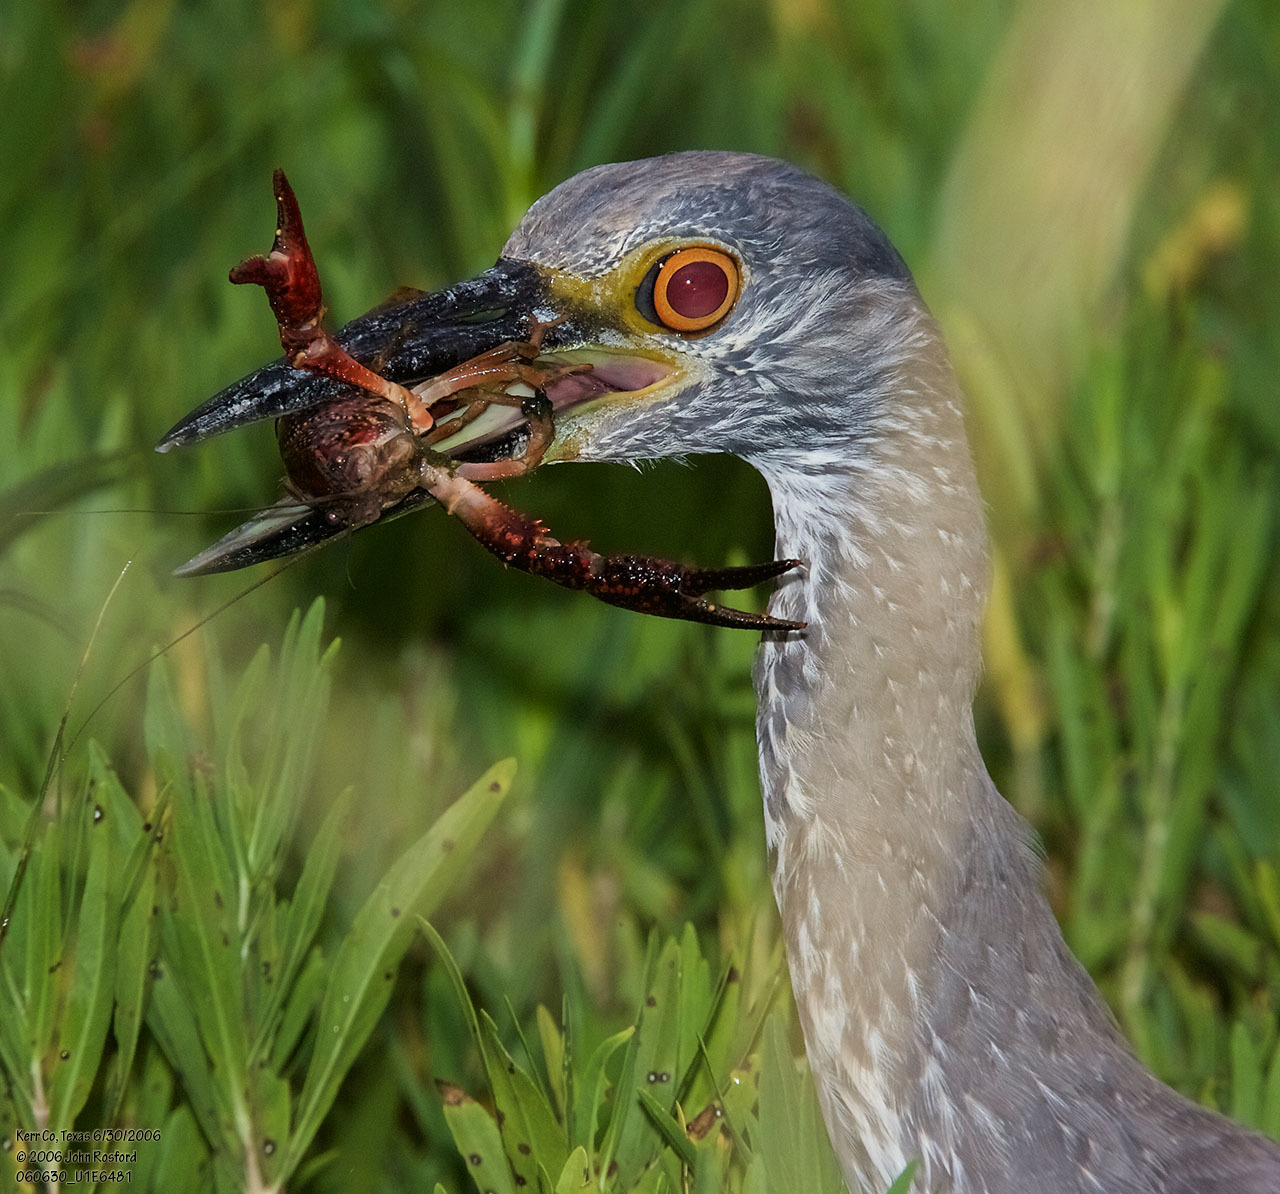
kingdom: Animalia
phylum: Chordata
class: Aves
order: Pelecaniformes
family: Ardeidae
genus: Nyctanassa
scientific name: Nyctanassa violacea
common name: Yellow-crowned night heron
